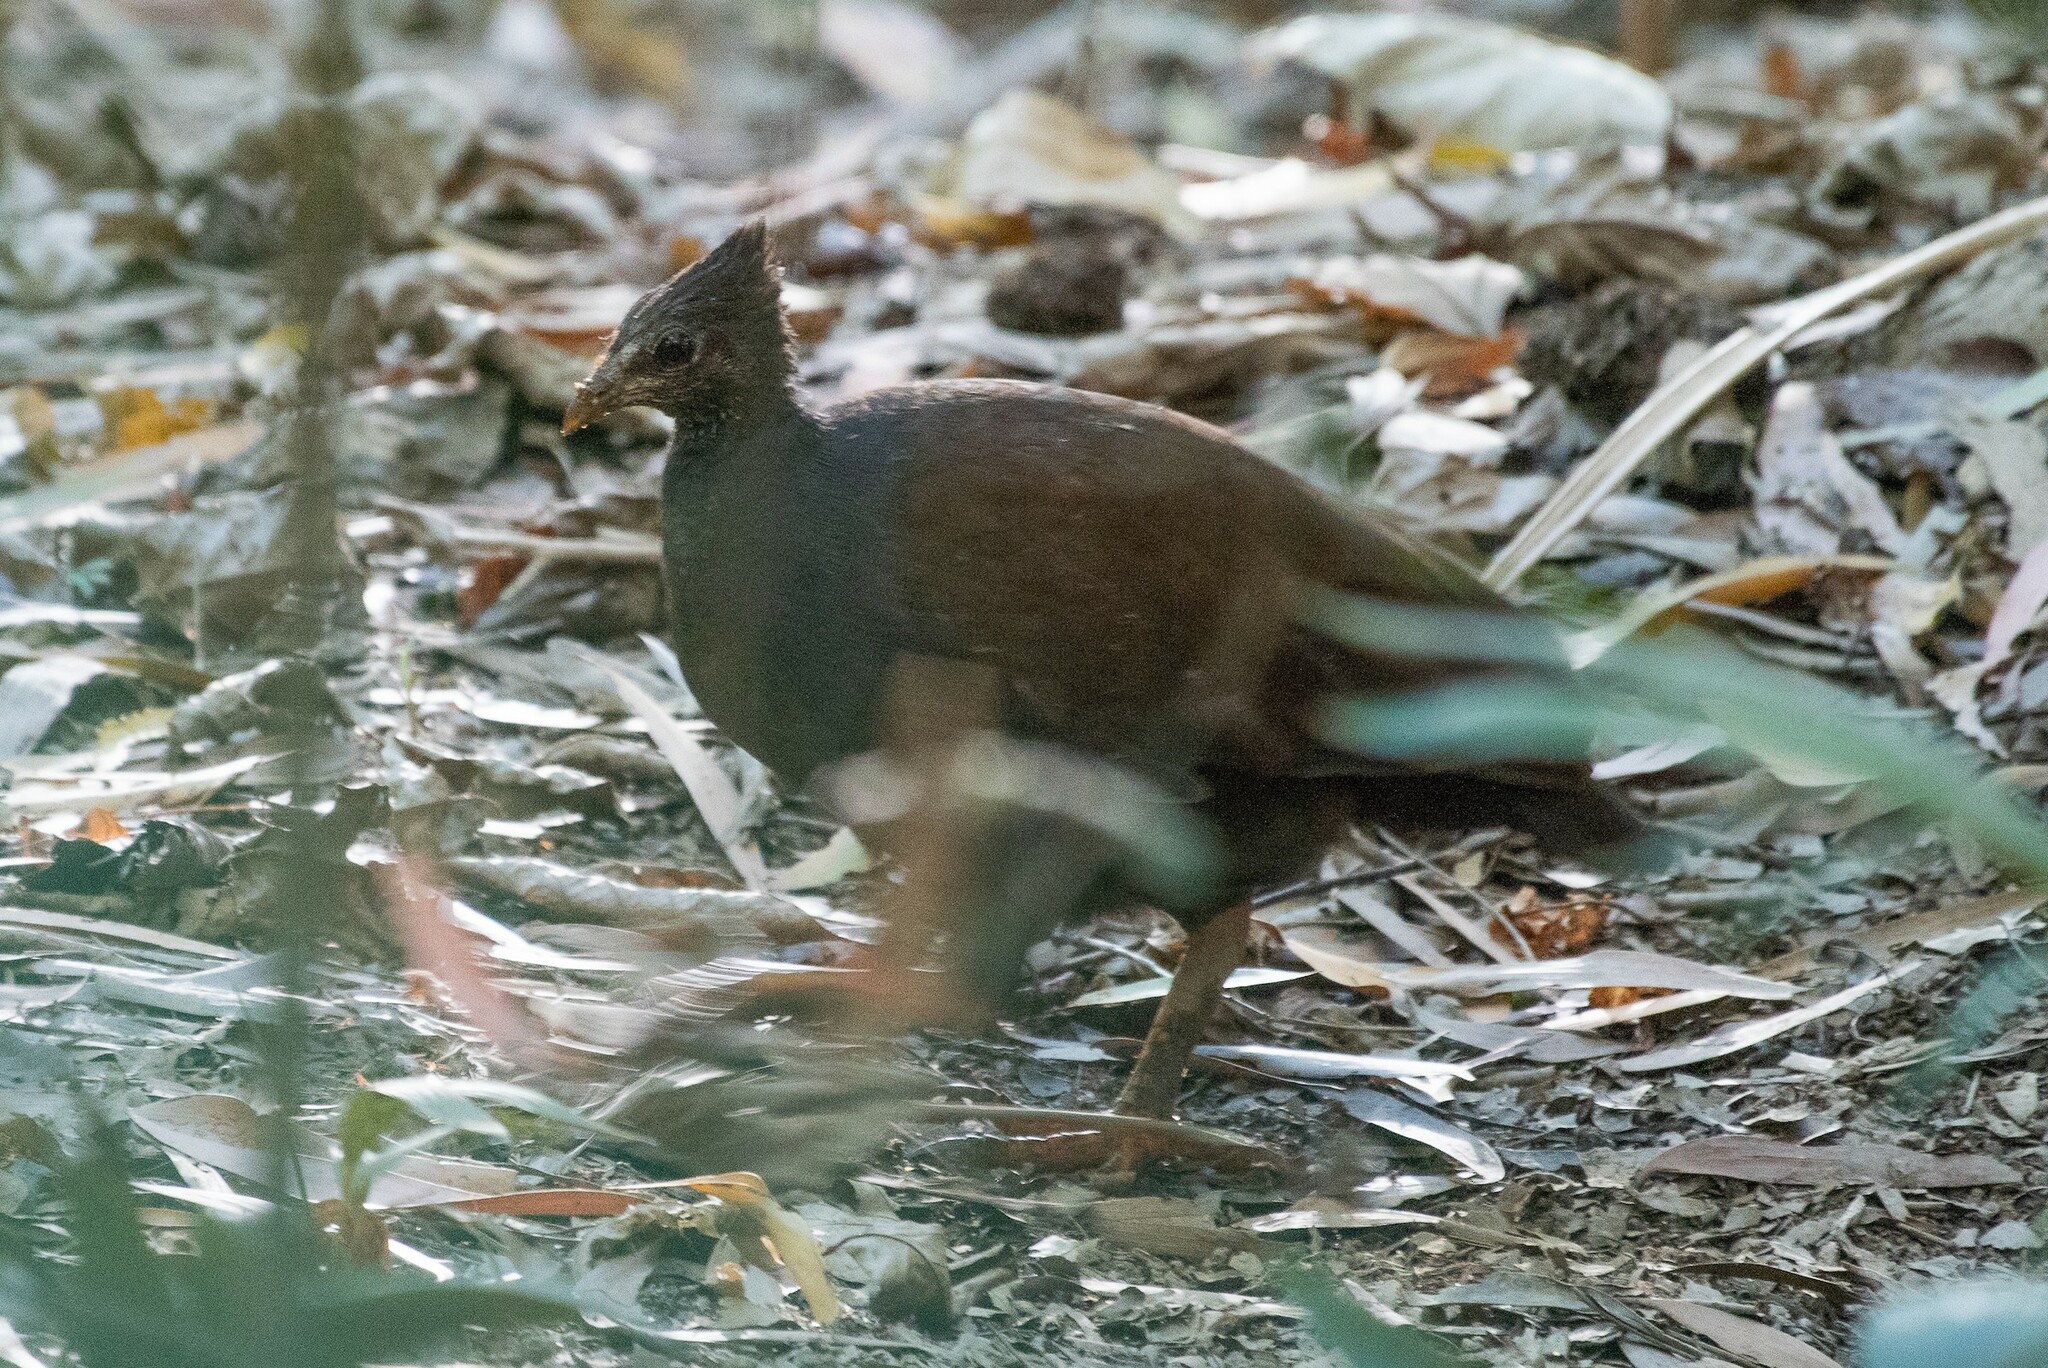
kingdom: Animalia
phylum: Chordata
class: Aves
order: Galliformes
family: Megapodiidae
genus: Megapodius
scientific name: Megapodius reinwardt
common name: Orange-footed scrubfowl
